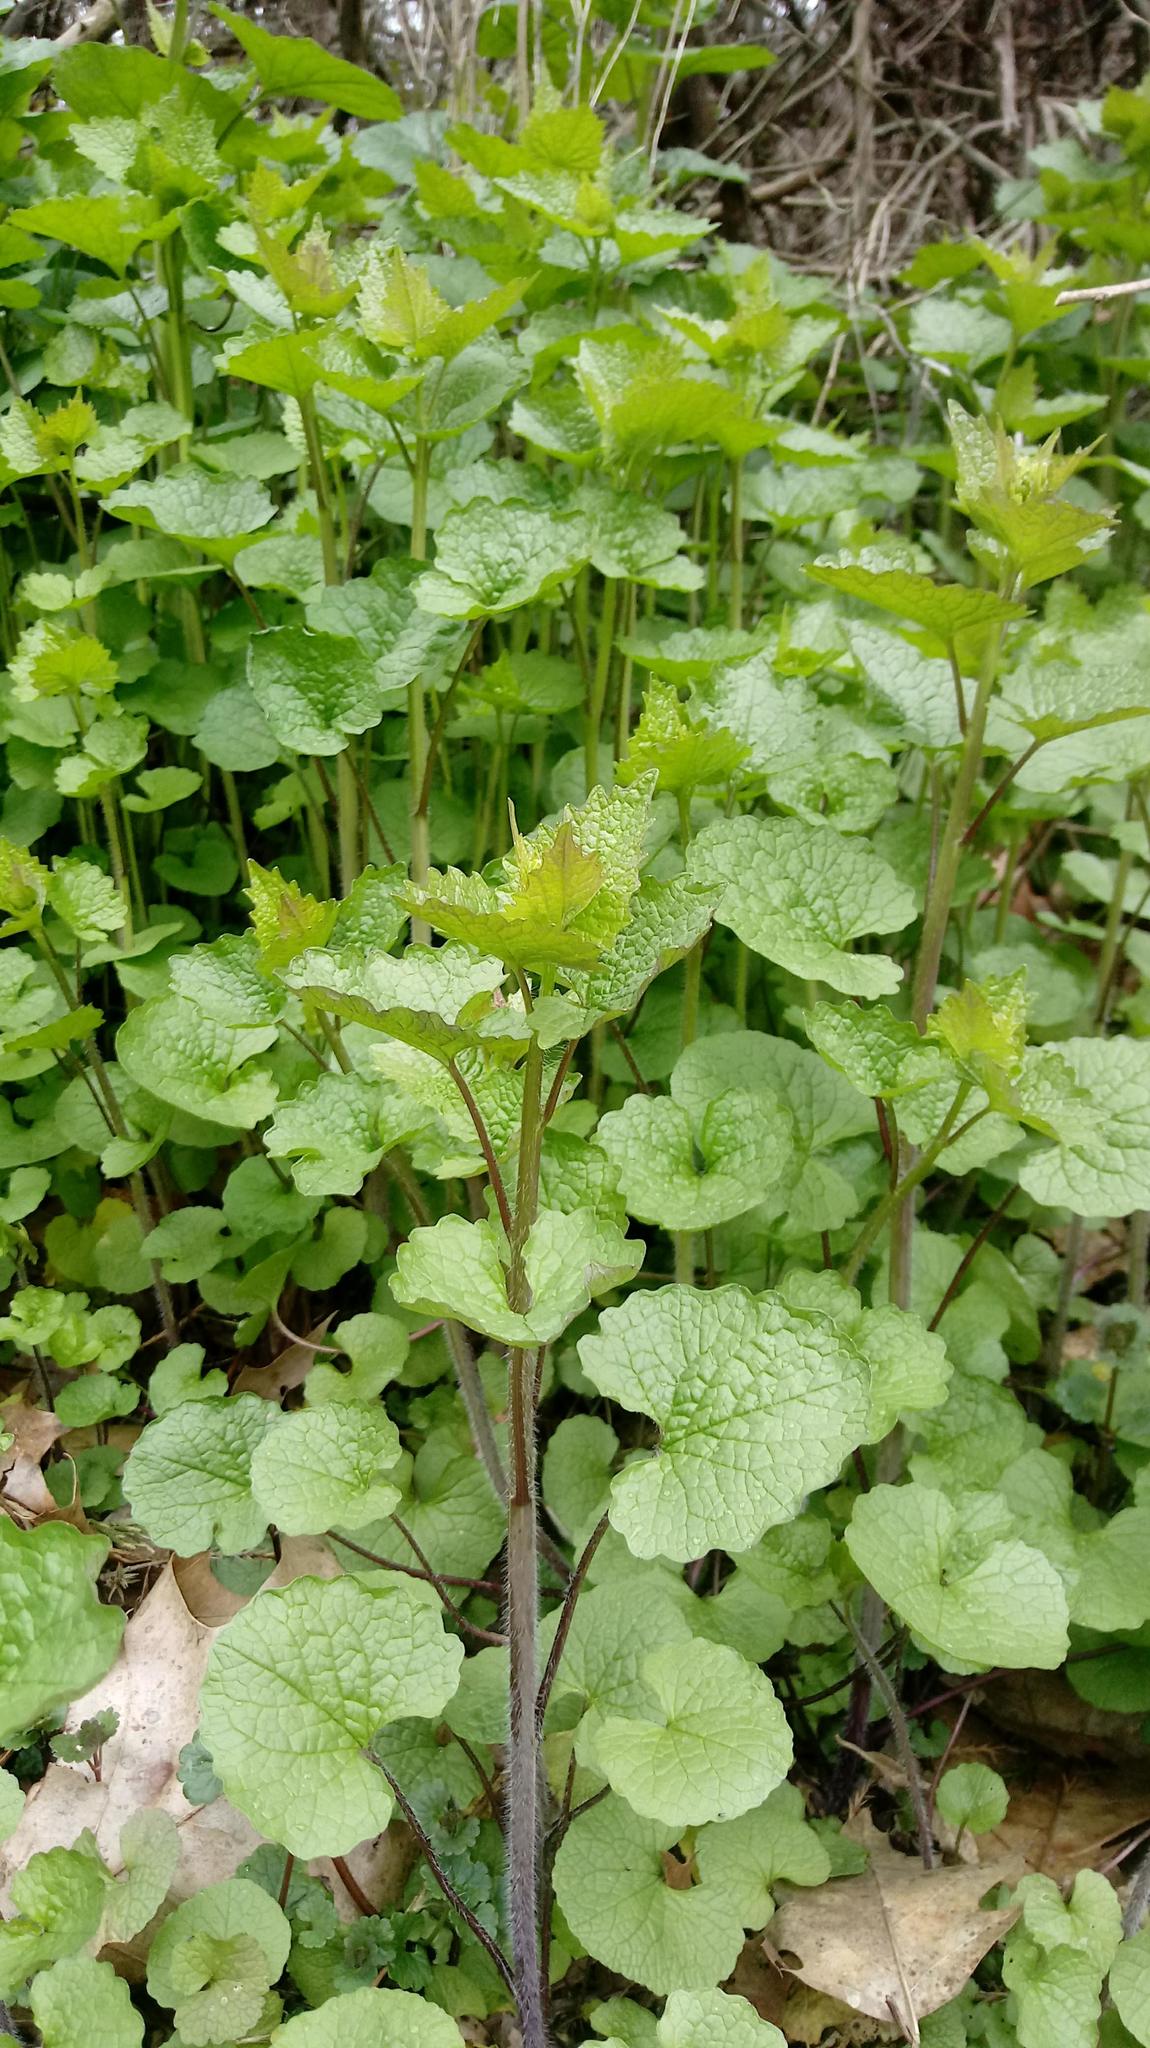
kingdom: Plantae
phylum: Tracheophyta
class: Magnoliopsida
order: Brassicales
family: Brassicaceae
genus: Alliaria
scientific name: Alliaria petiolata
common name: Garlic mustard
